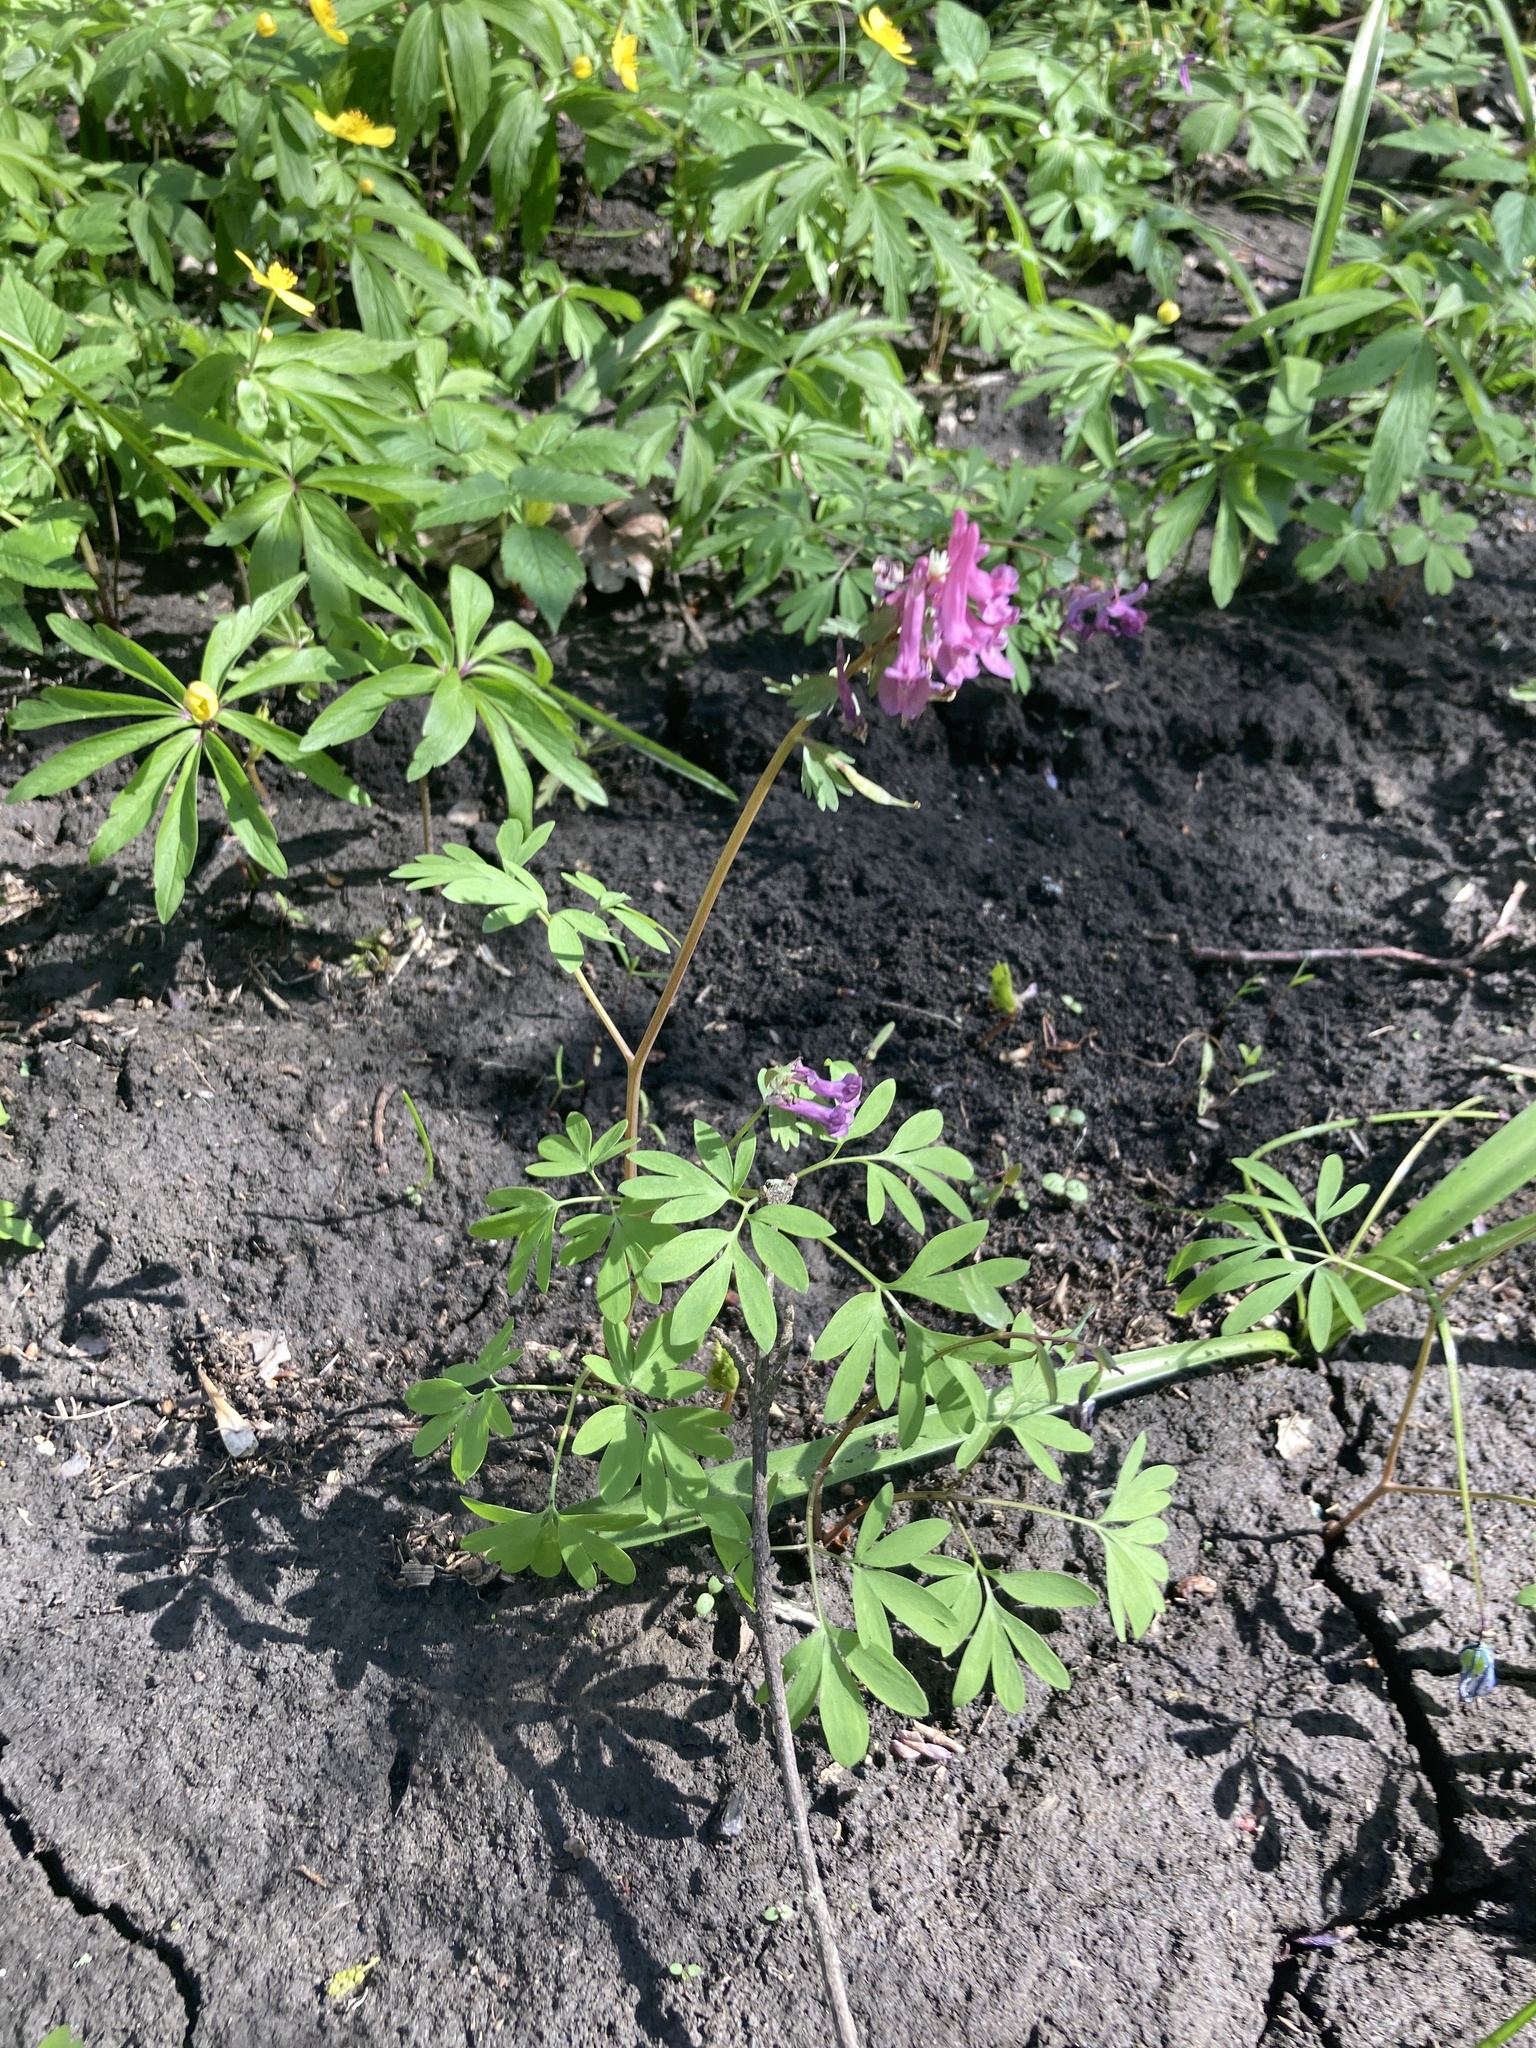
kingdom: Plantae
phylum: Tracheophyta
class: Magnoliopsida
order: Ranunculales
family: Papaveraceae
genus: Corydalis
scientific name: Corydalis solida
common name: Bird-in-a-bush
